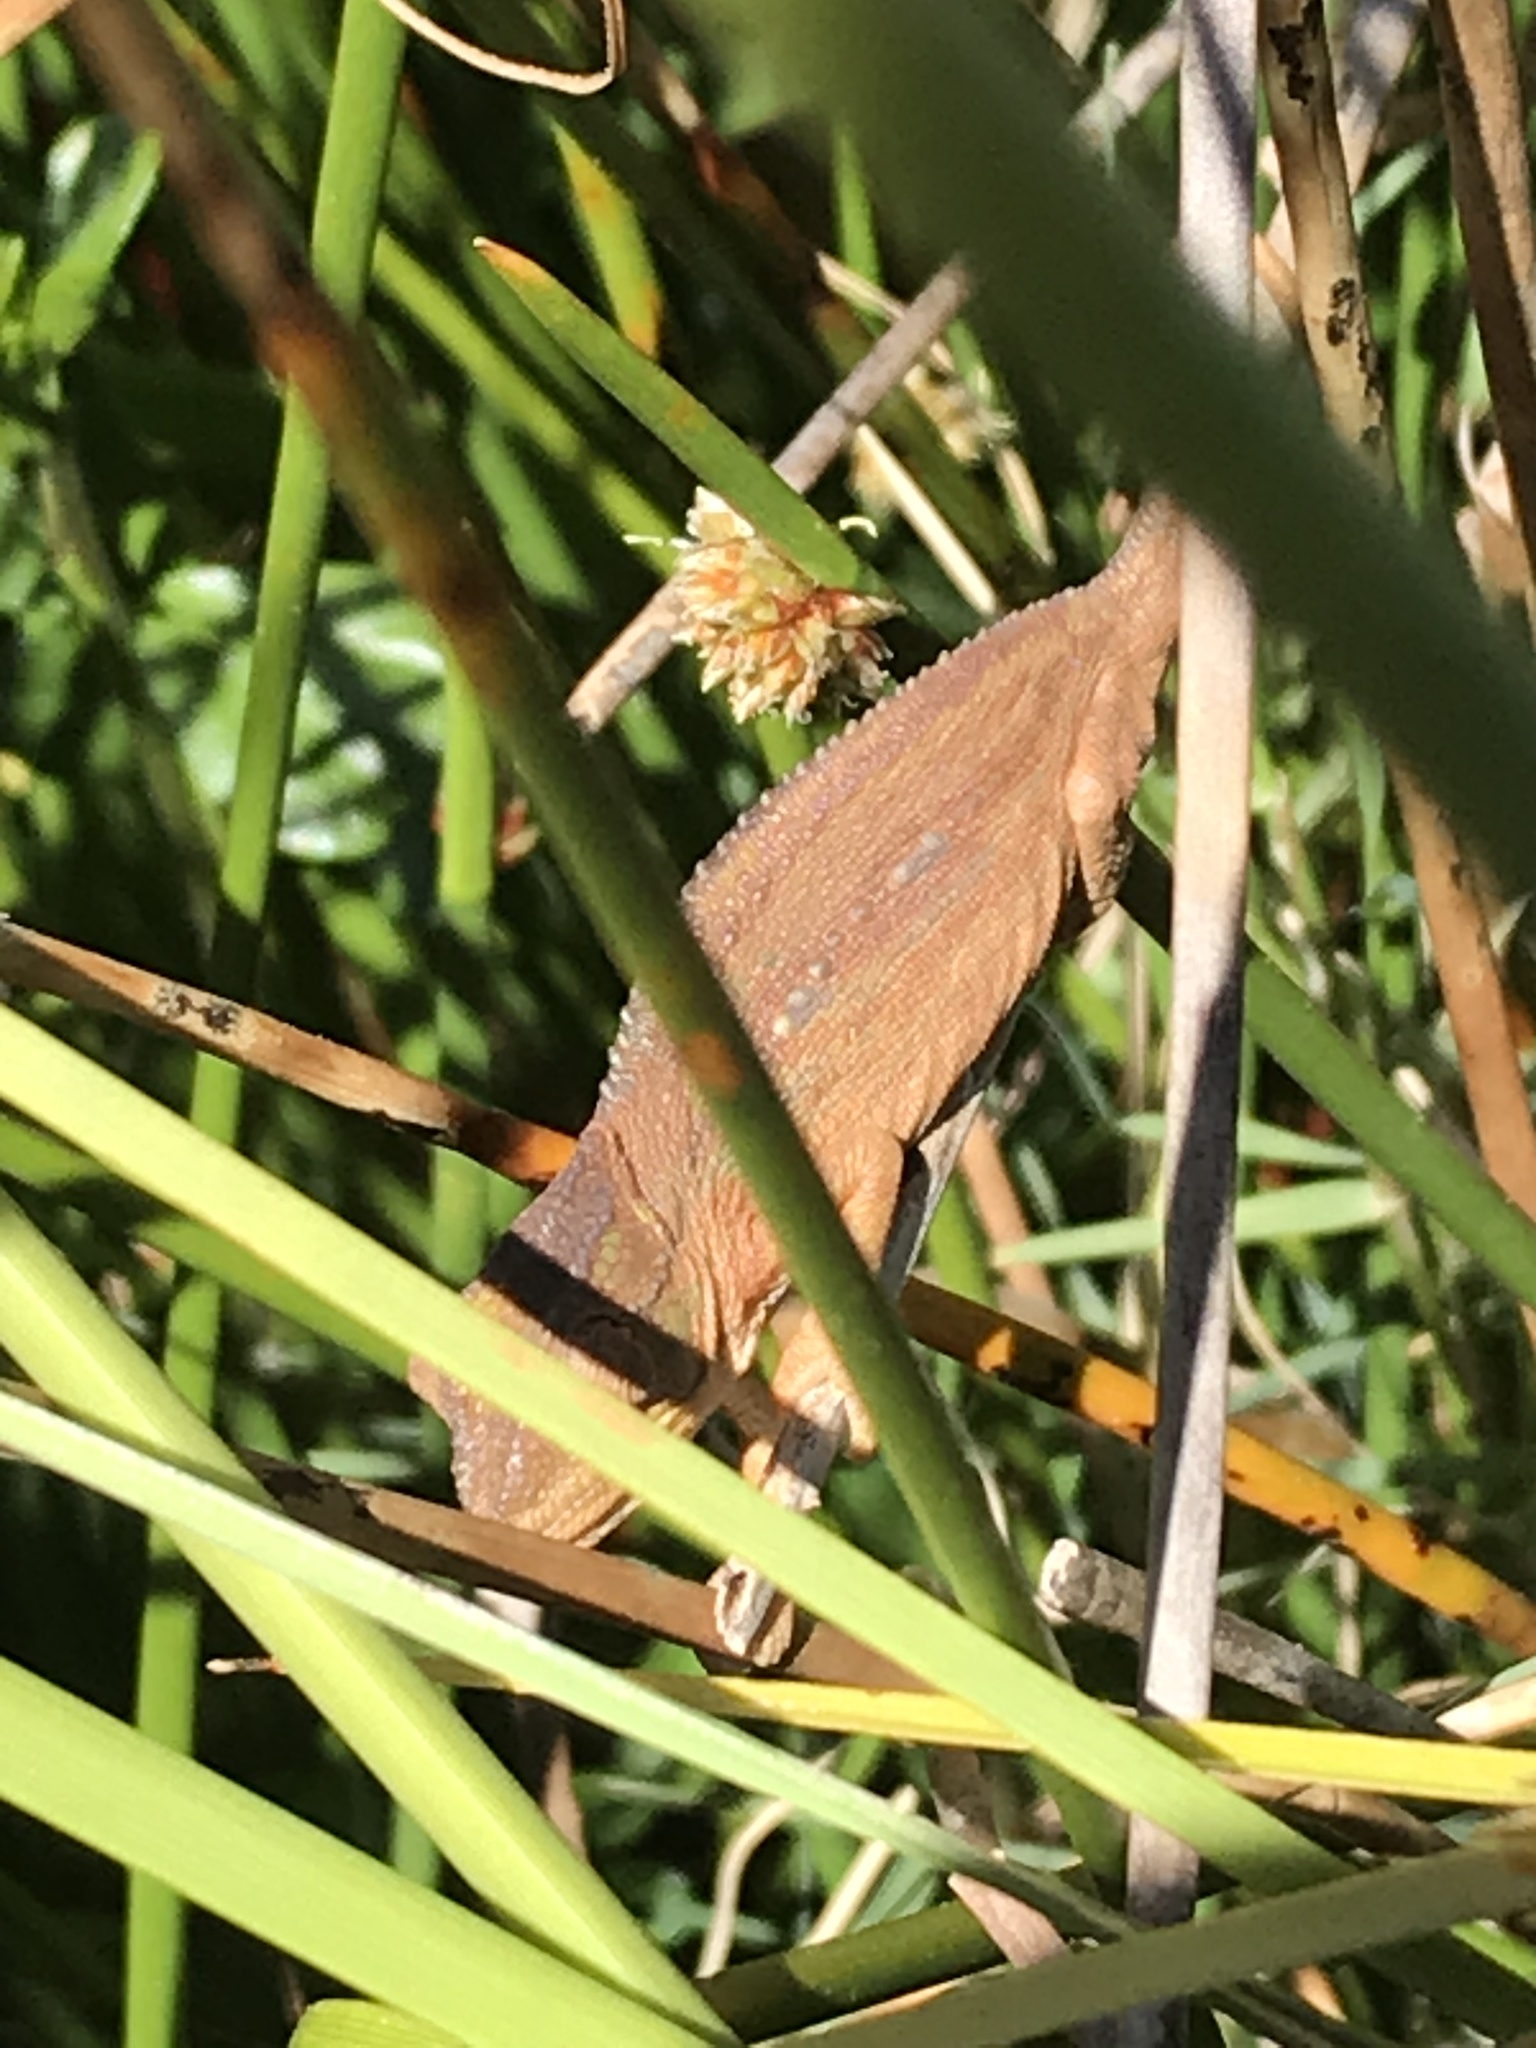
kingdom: Animalia
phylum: Chordata
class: Squamata
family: Chamaeleonidae
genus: Bradypodion
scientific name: Bradypodion pumilum
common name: Cape dwarf chameleon
